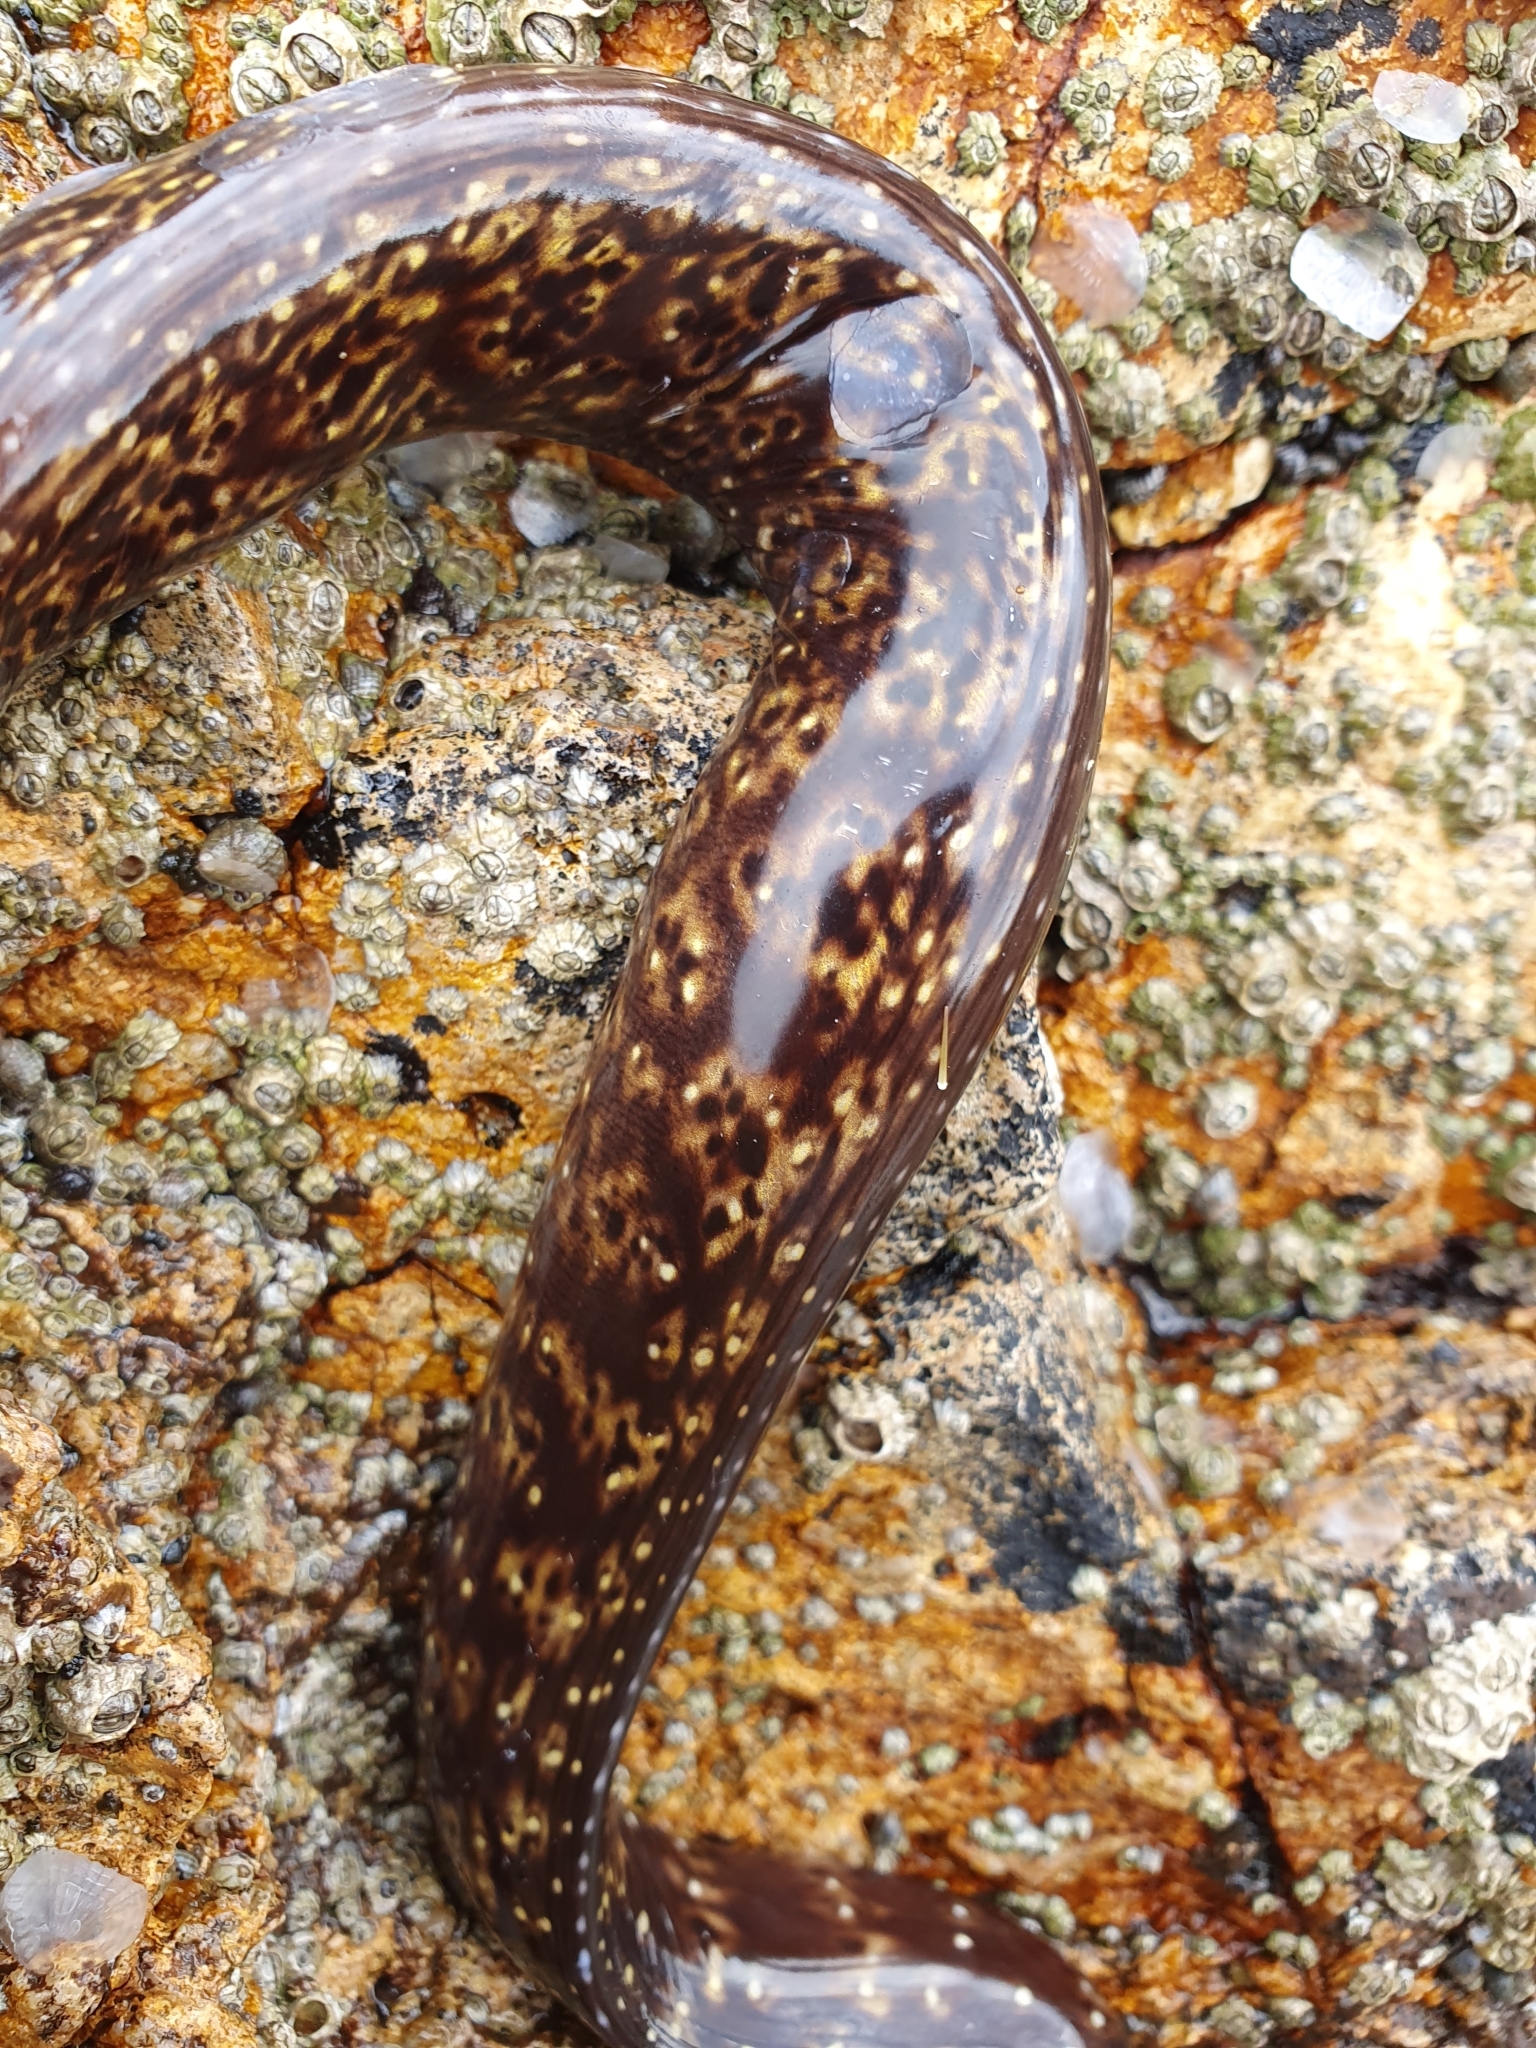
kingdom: Animalia
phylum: Chordata
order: Anguilliformes
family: Muraenidae
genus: Muraena
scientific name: Muraena helena
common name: Mediterranean moray
